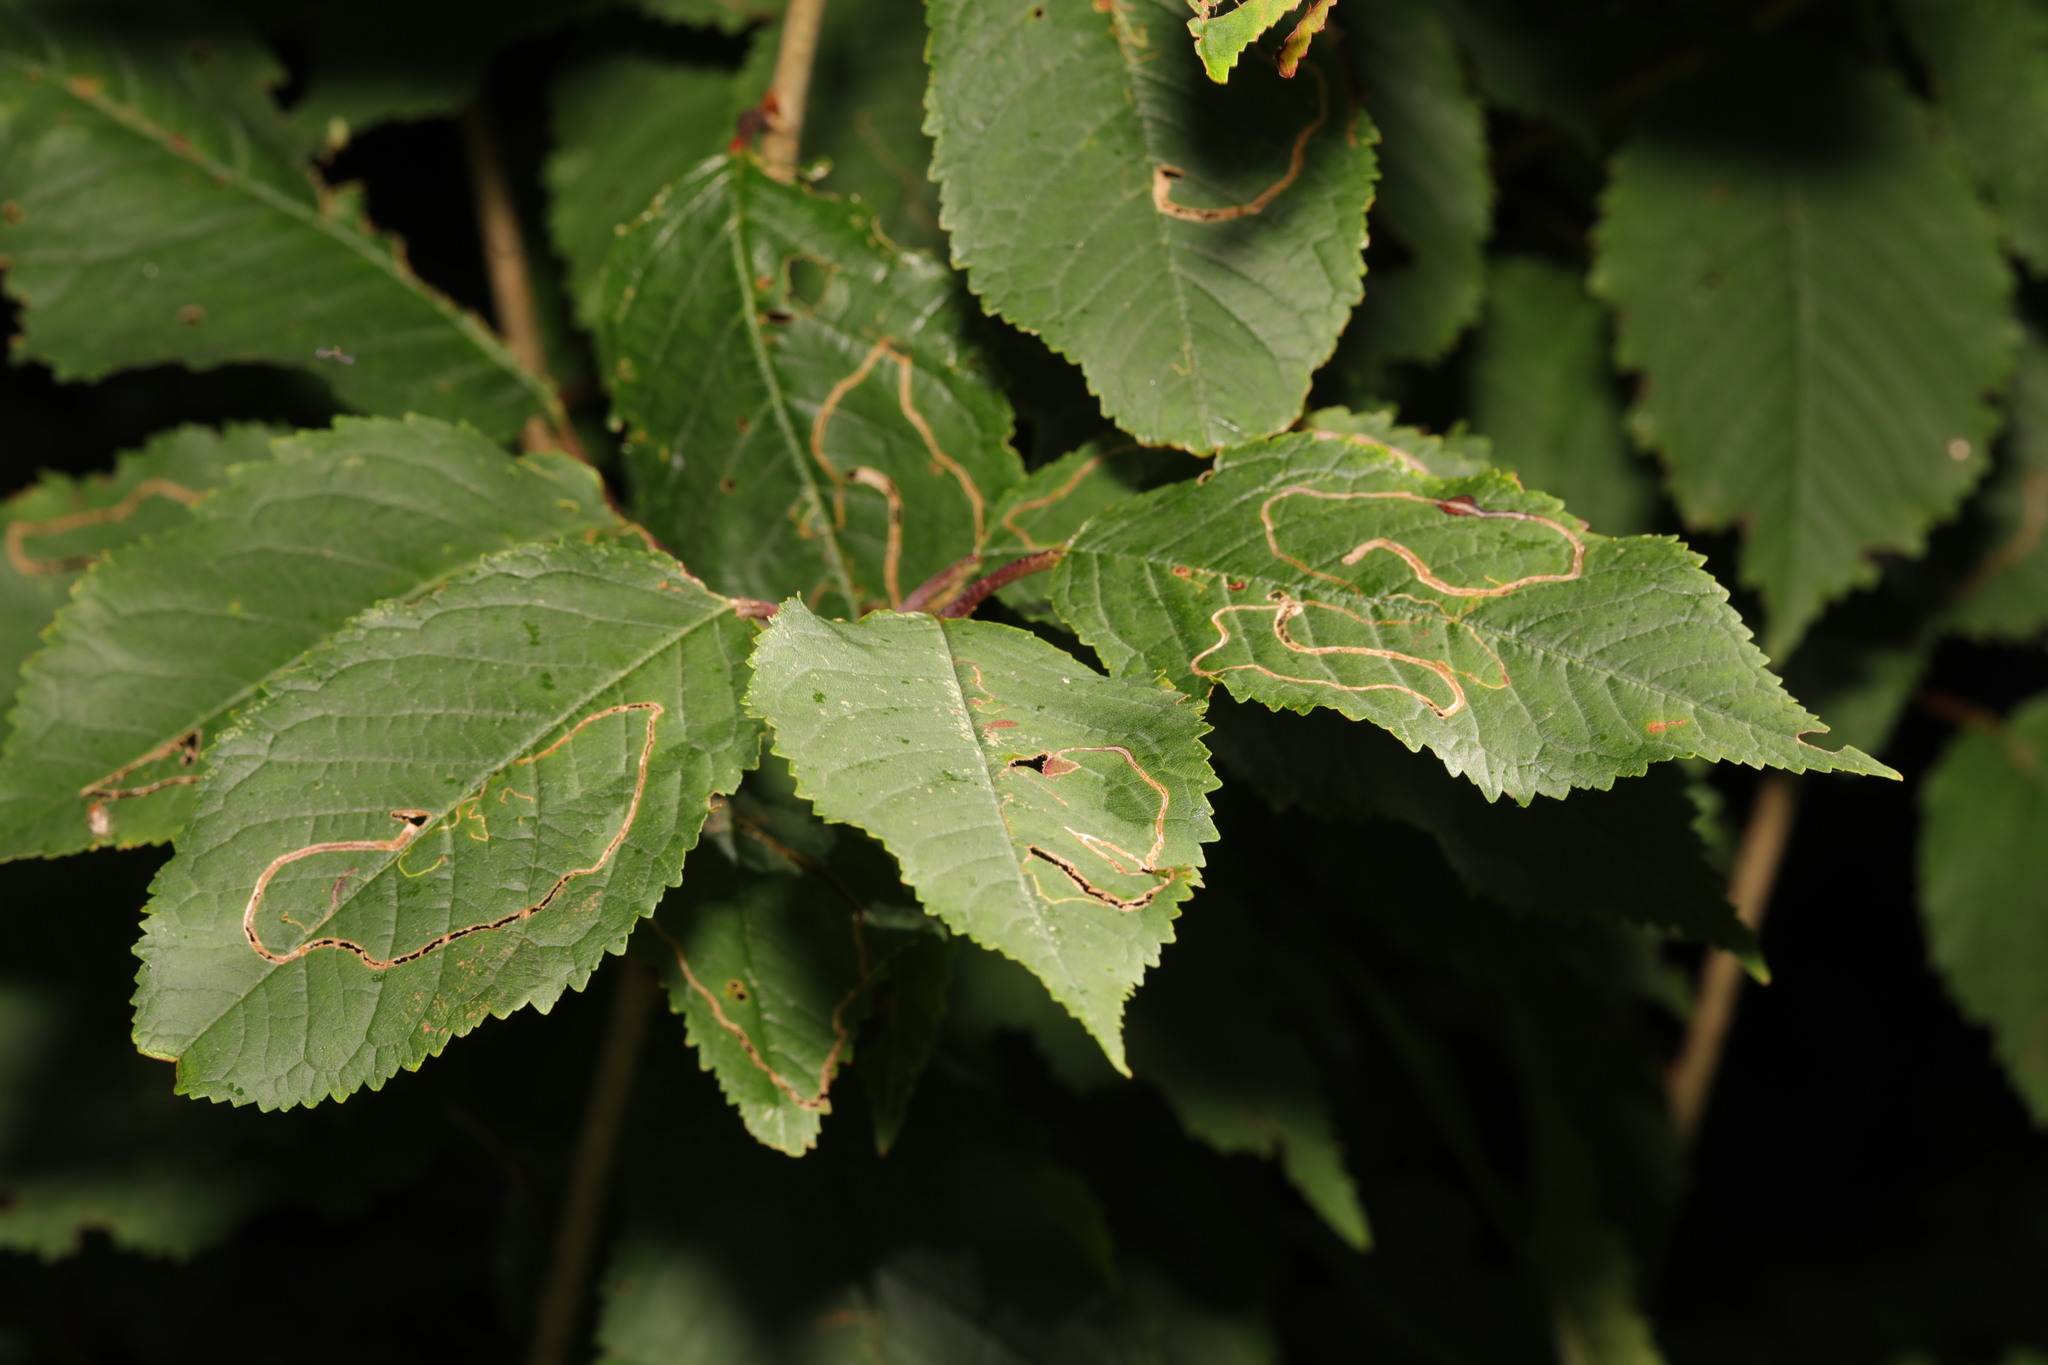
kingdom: Plantae
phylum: Tracheophyta
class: Magnoliopsida
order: Rosales
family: Rosaceae
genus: Prunus
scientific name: Prunus avium
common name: Sweet cherry
